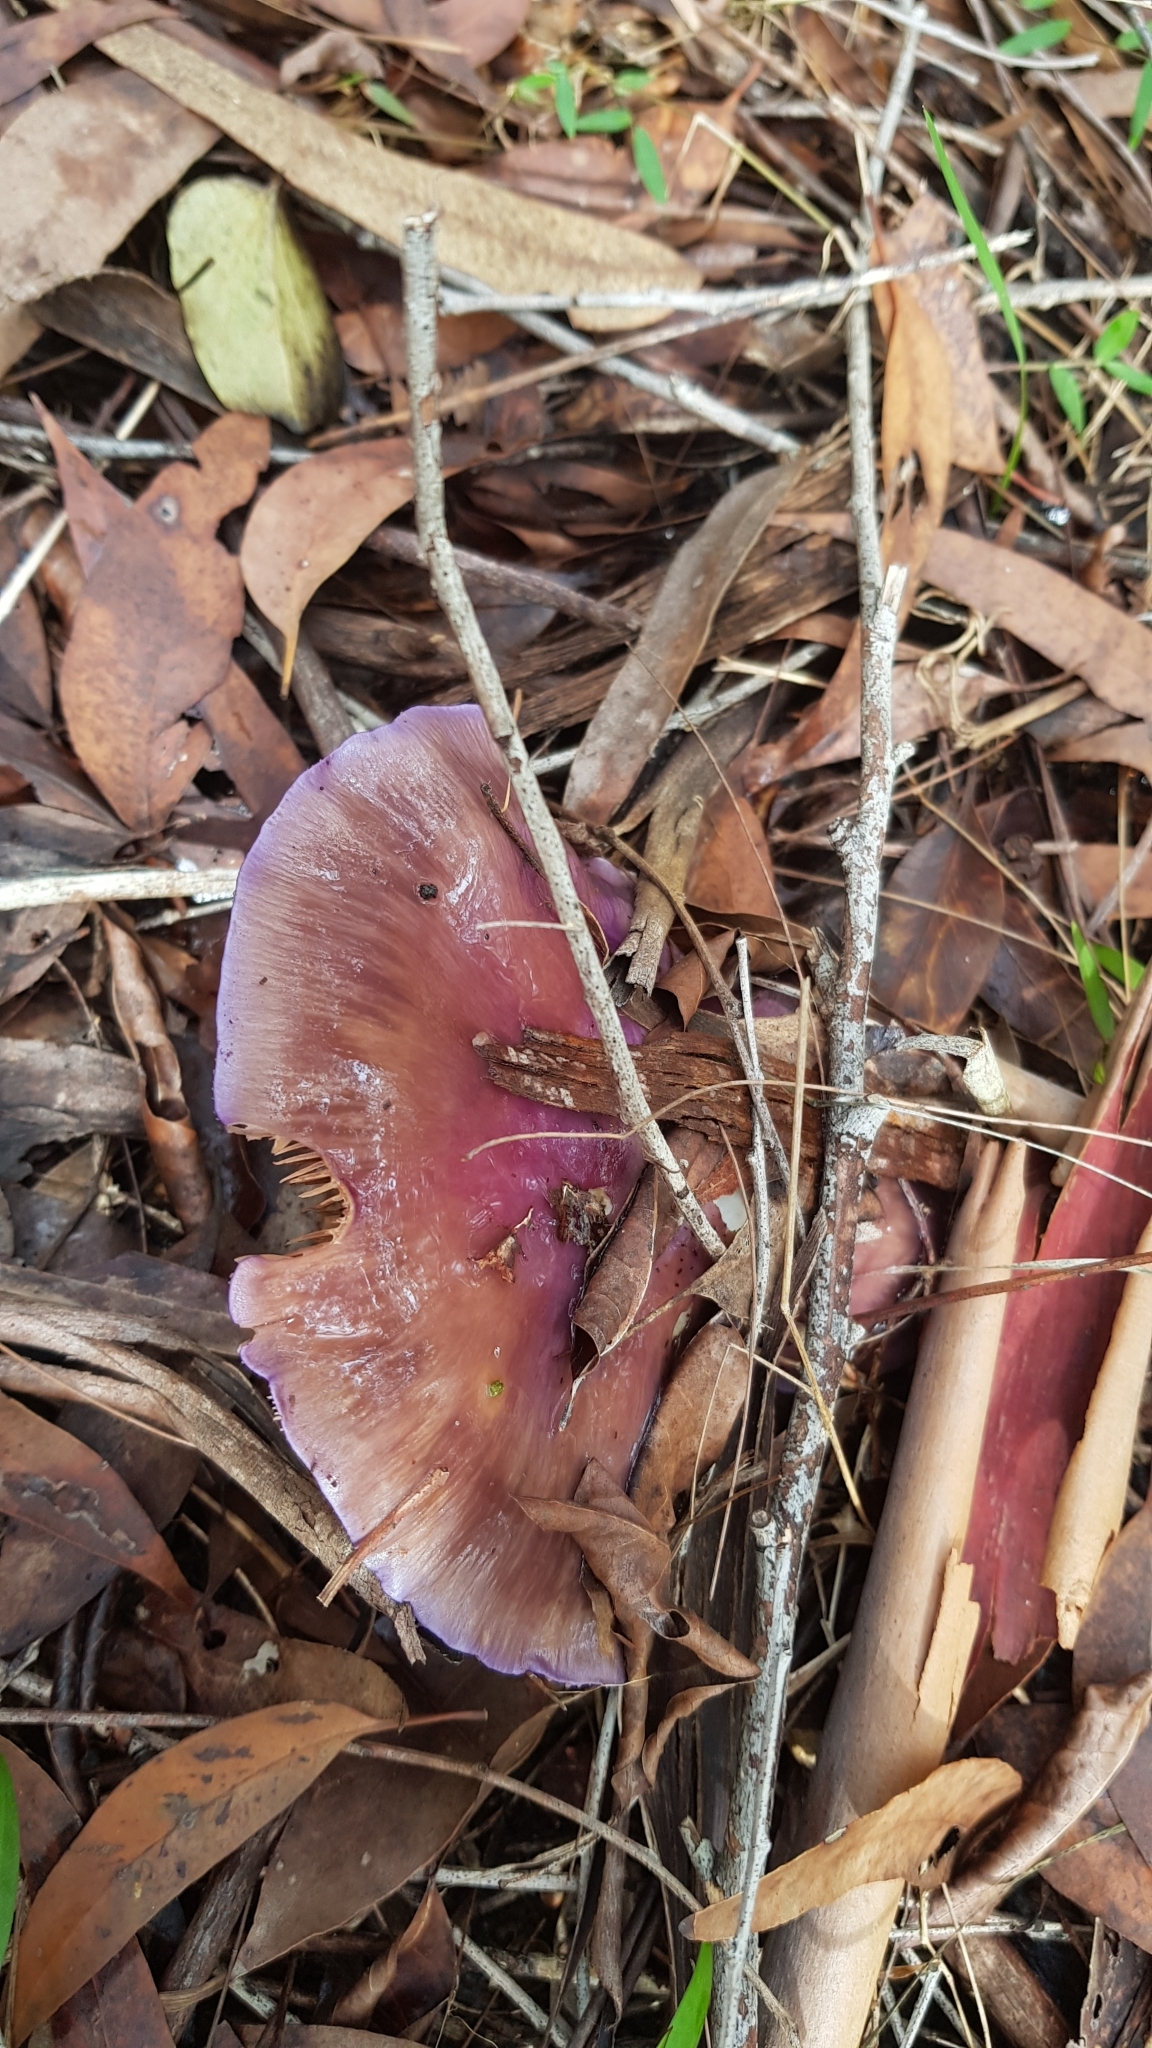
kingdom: Fungi
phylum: Basidiomycota
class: Agaricomycetes
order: Agaricales
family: Cortinariaceae
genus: Cortinarius
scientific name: Cortinarius archeri
